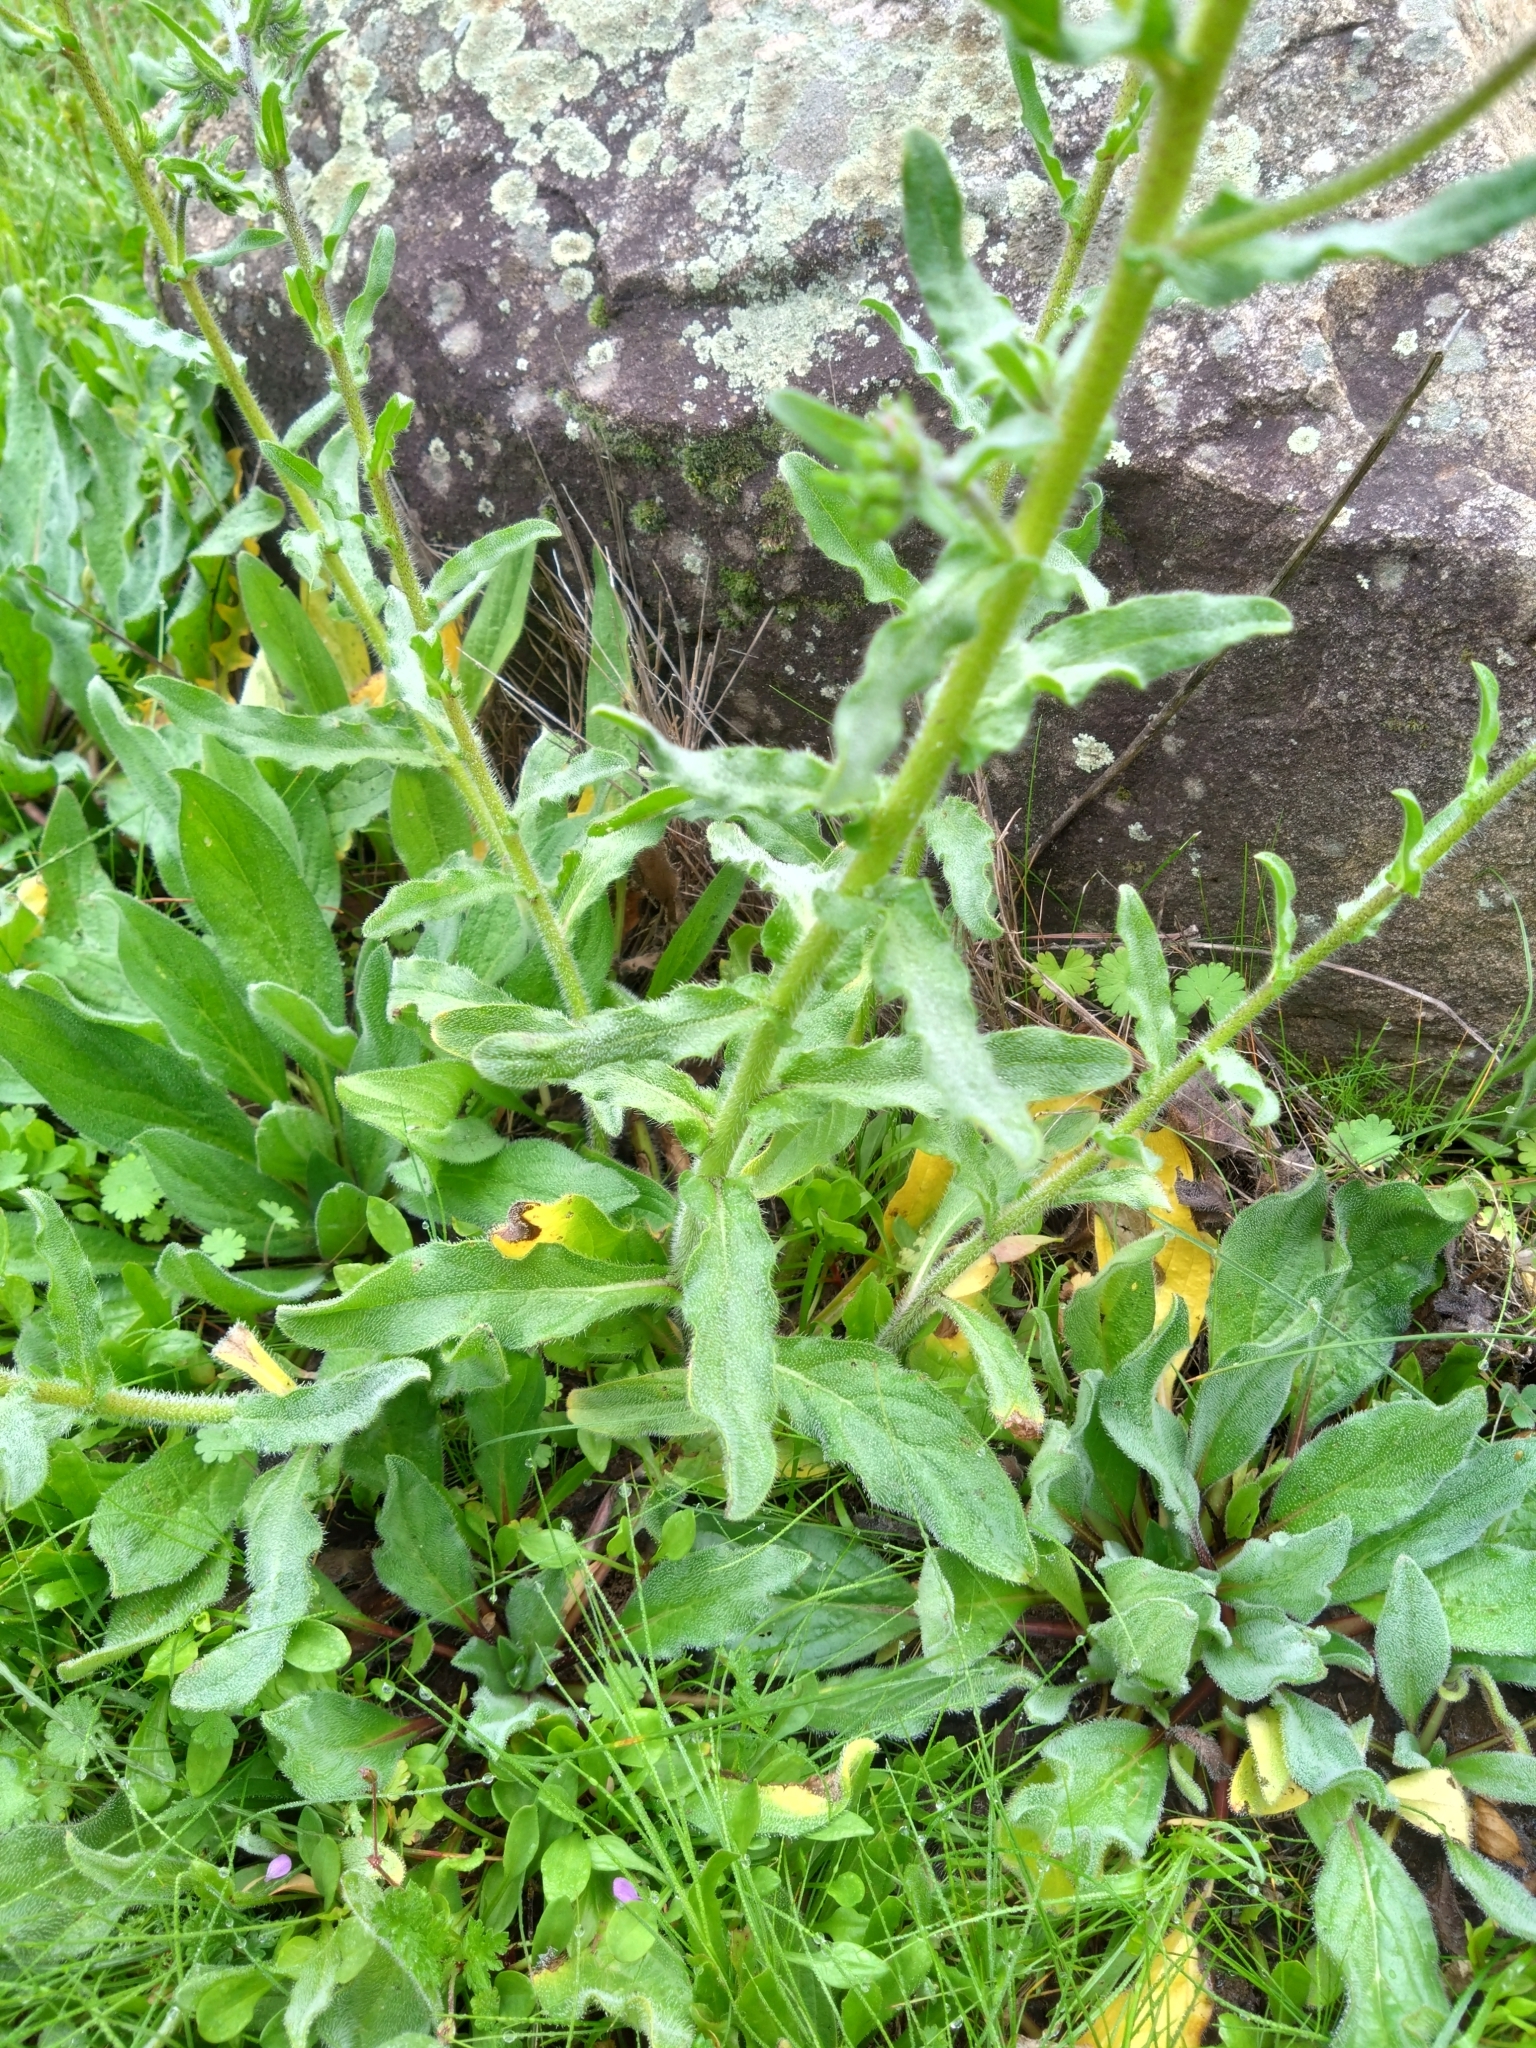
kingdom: Plantae
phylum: Tracheophyta
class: Magnoliopsida
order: Boraginales
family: Boraginaceae
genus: Echium
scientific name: Echium plantagineum
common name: Purple viper's-bugloss
